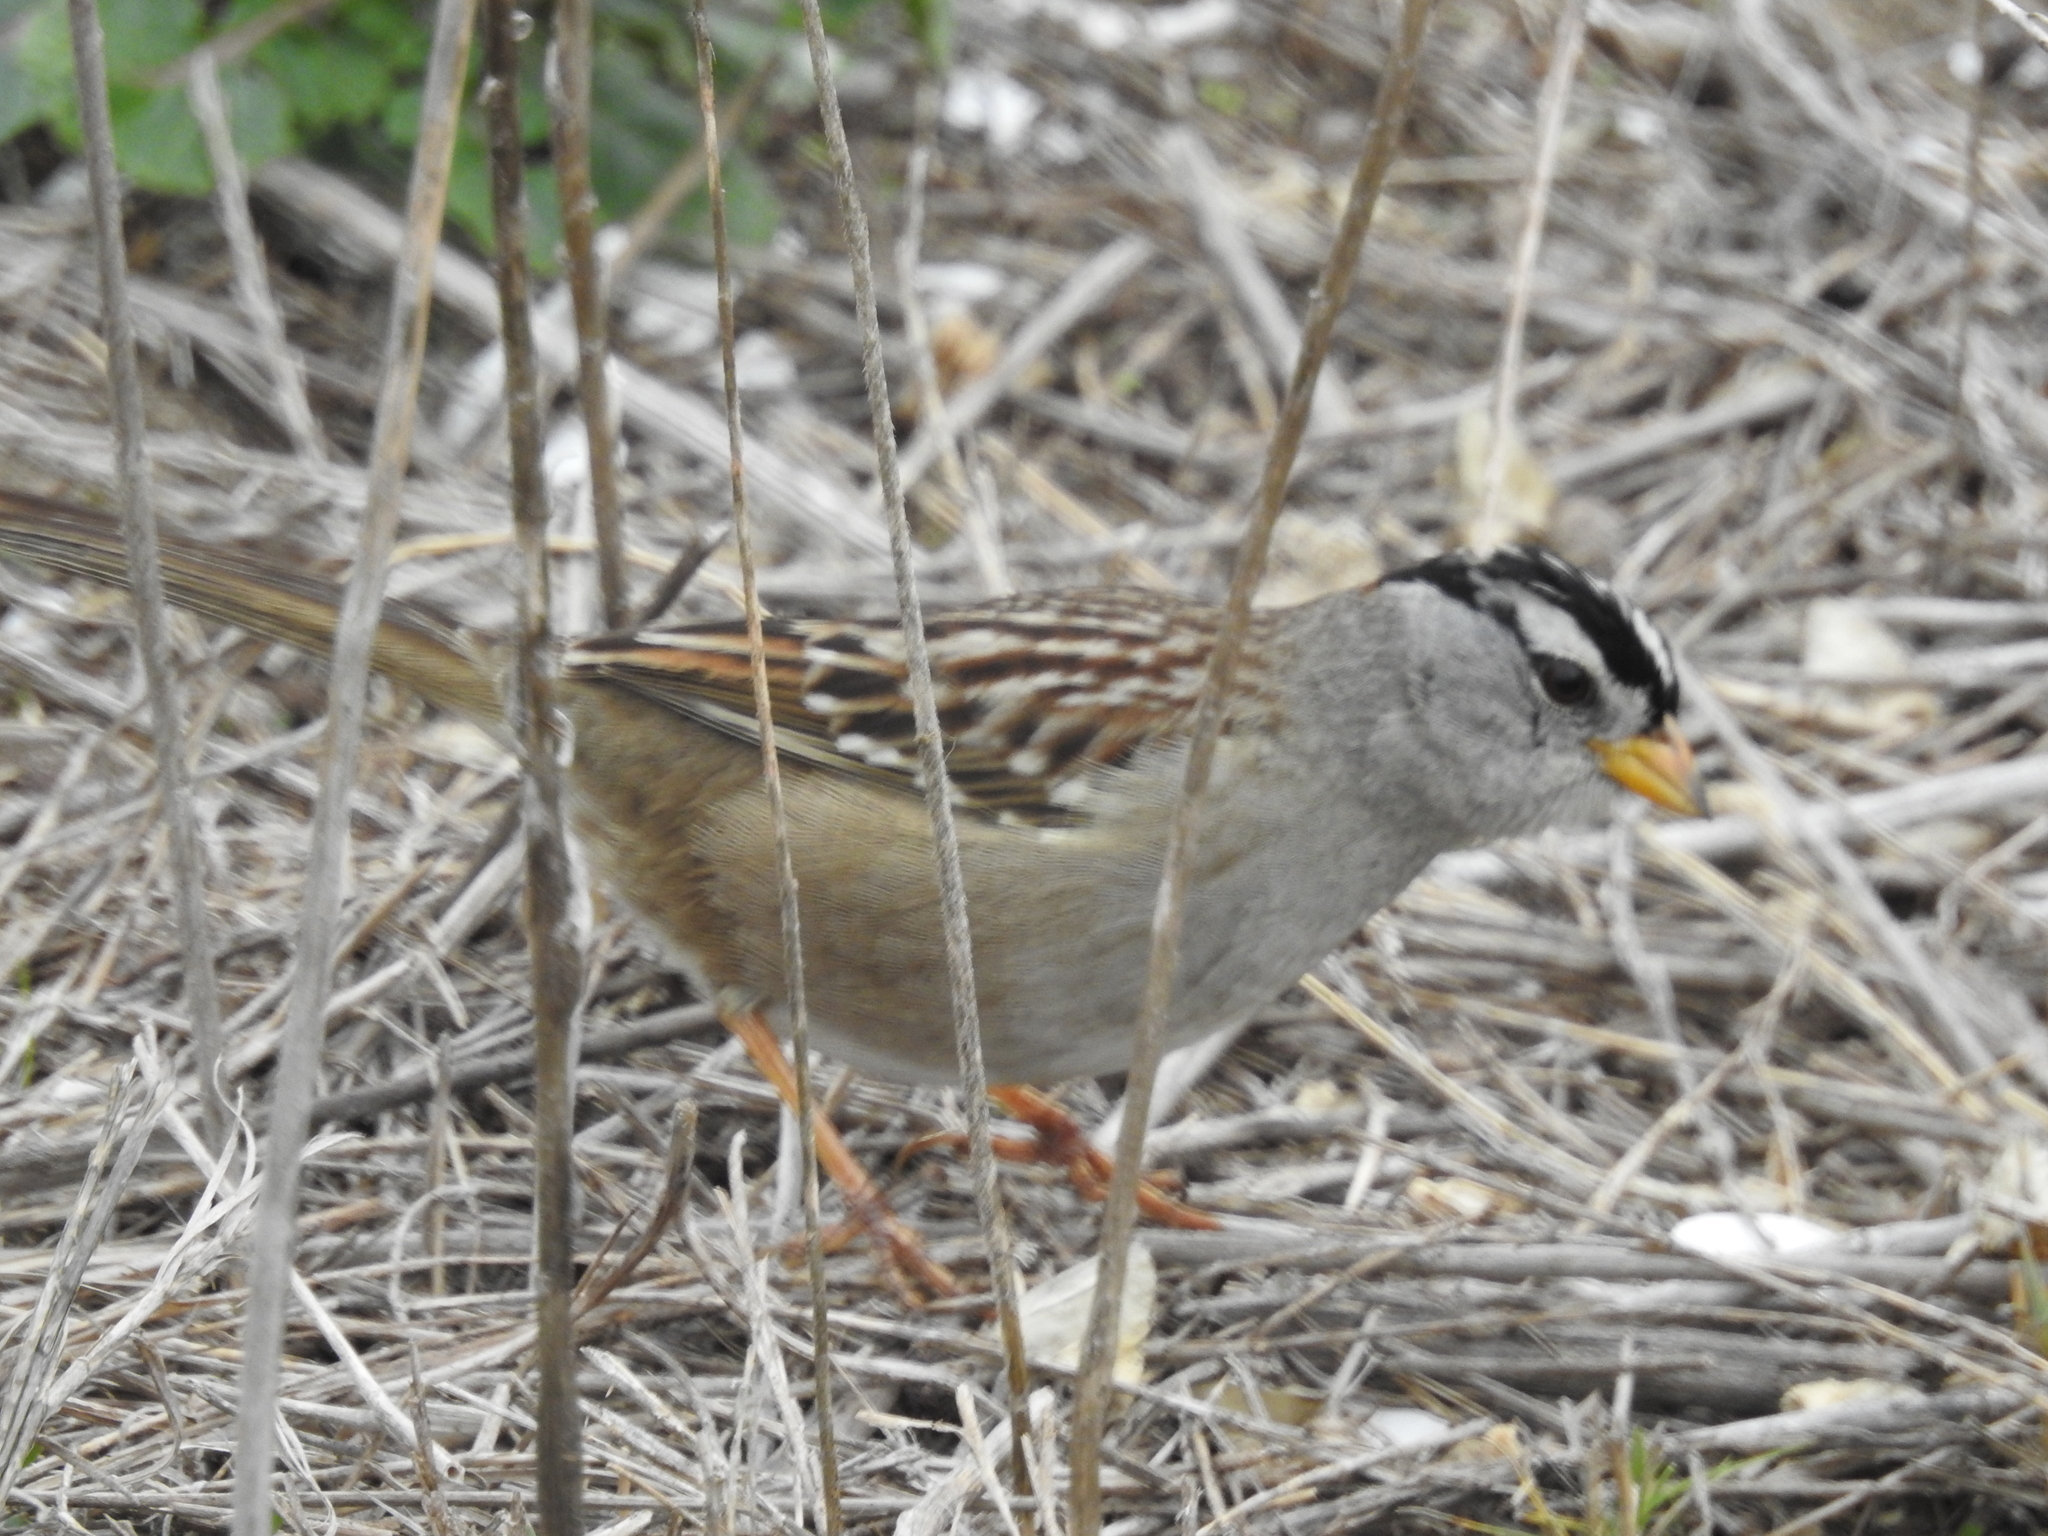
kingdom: Animalia
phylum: Chordata
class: Aves
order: Passeriformes
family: Passerellidae
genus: Zonotrichia
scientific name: Zonotrichia leucophrys
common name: White-crowned sparrow
